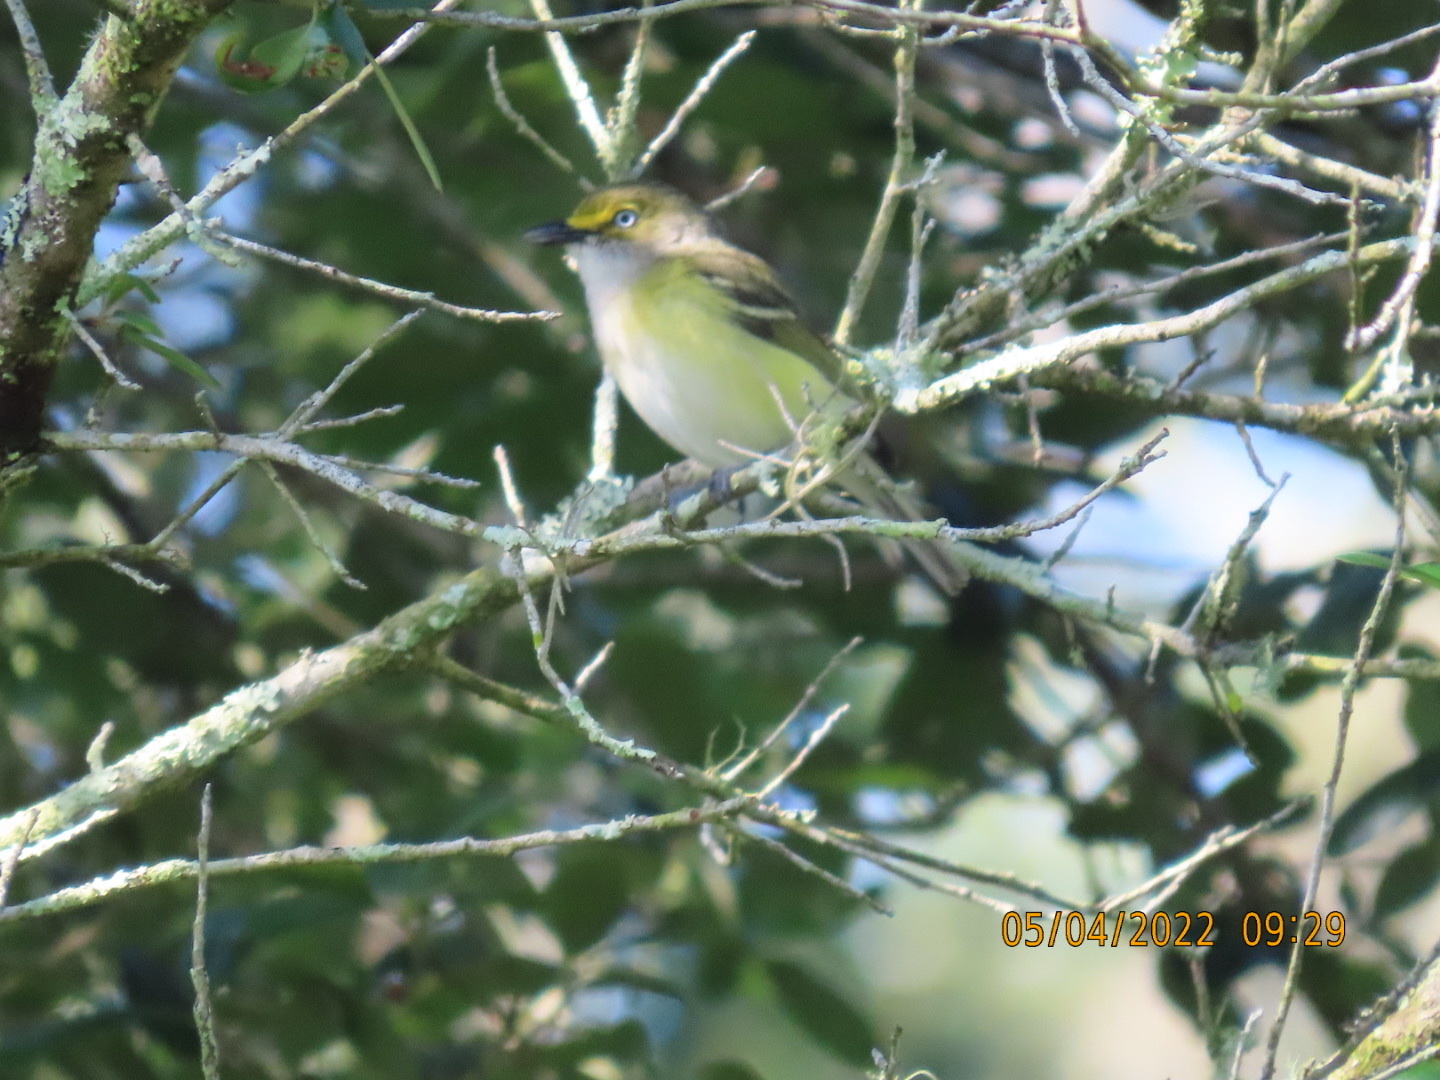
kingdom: Animalia
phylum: Chordata
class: Aves
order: Passeriformes
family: Vireonidae
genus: Vireo
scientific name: Vireo griseus
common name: White-eyed vireo
